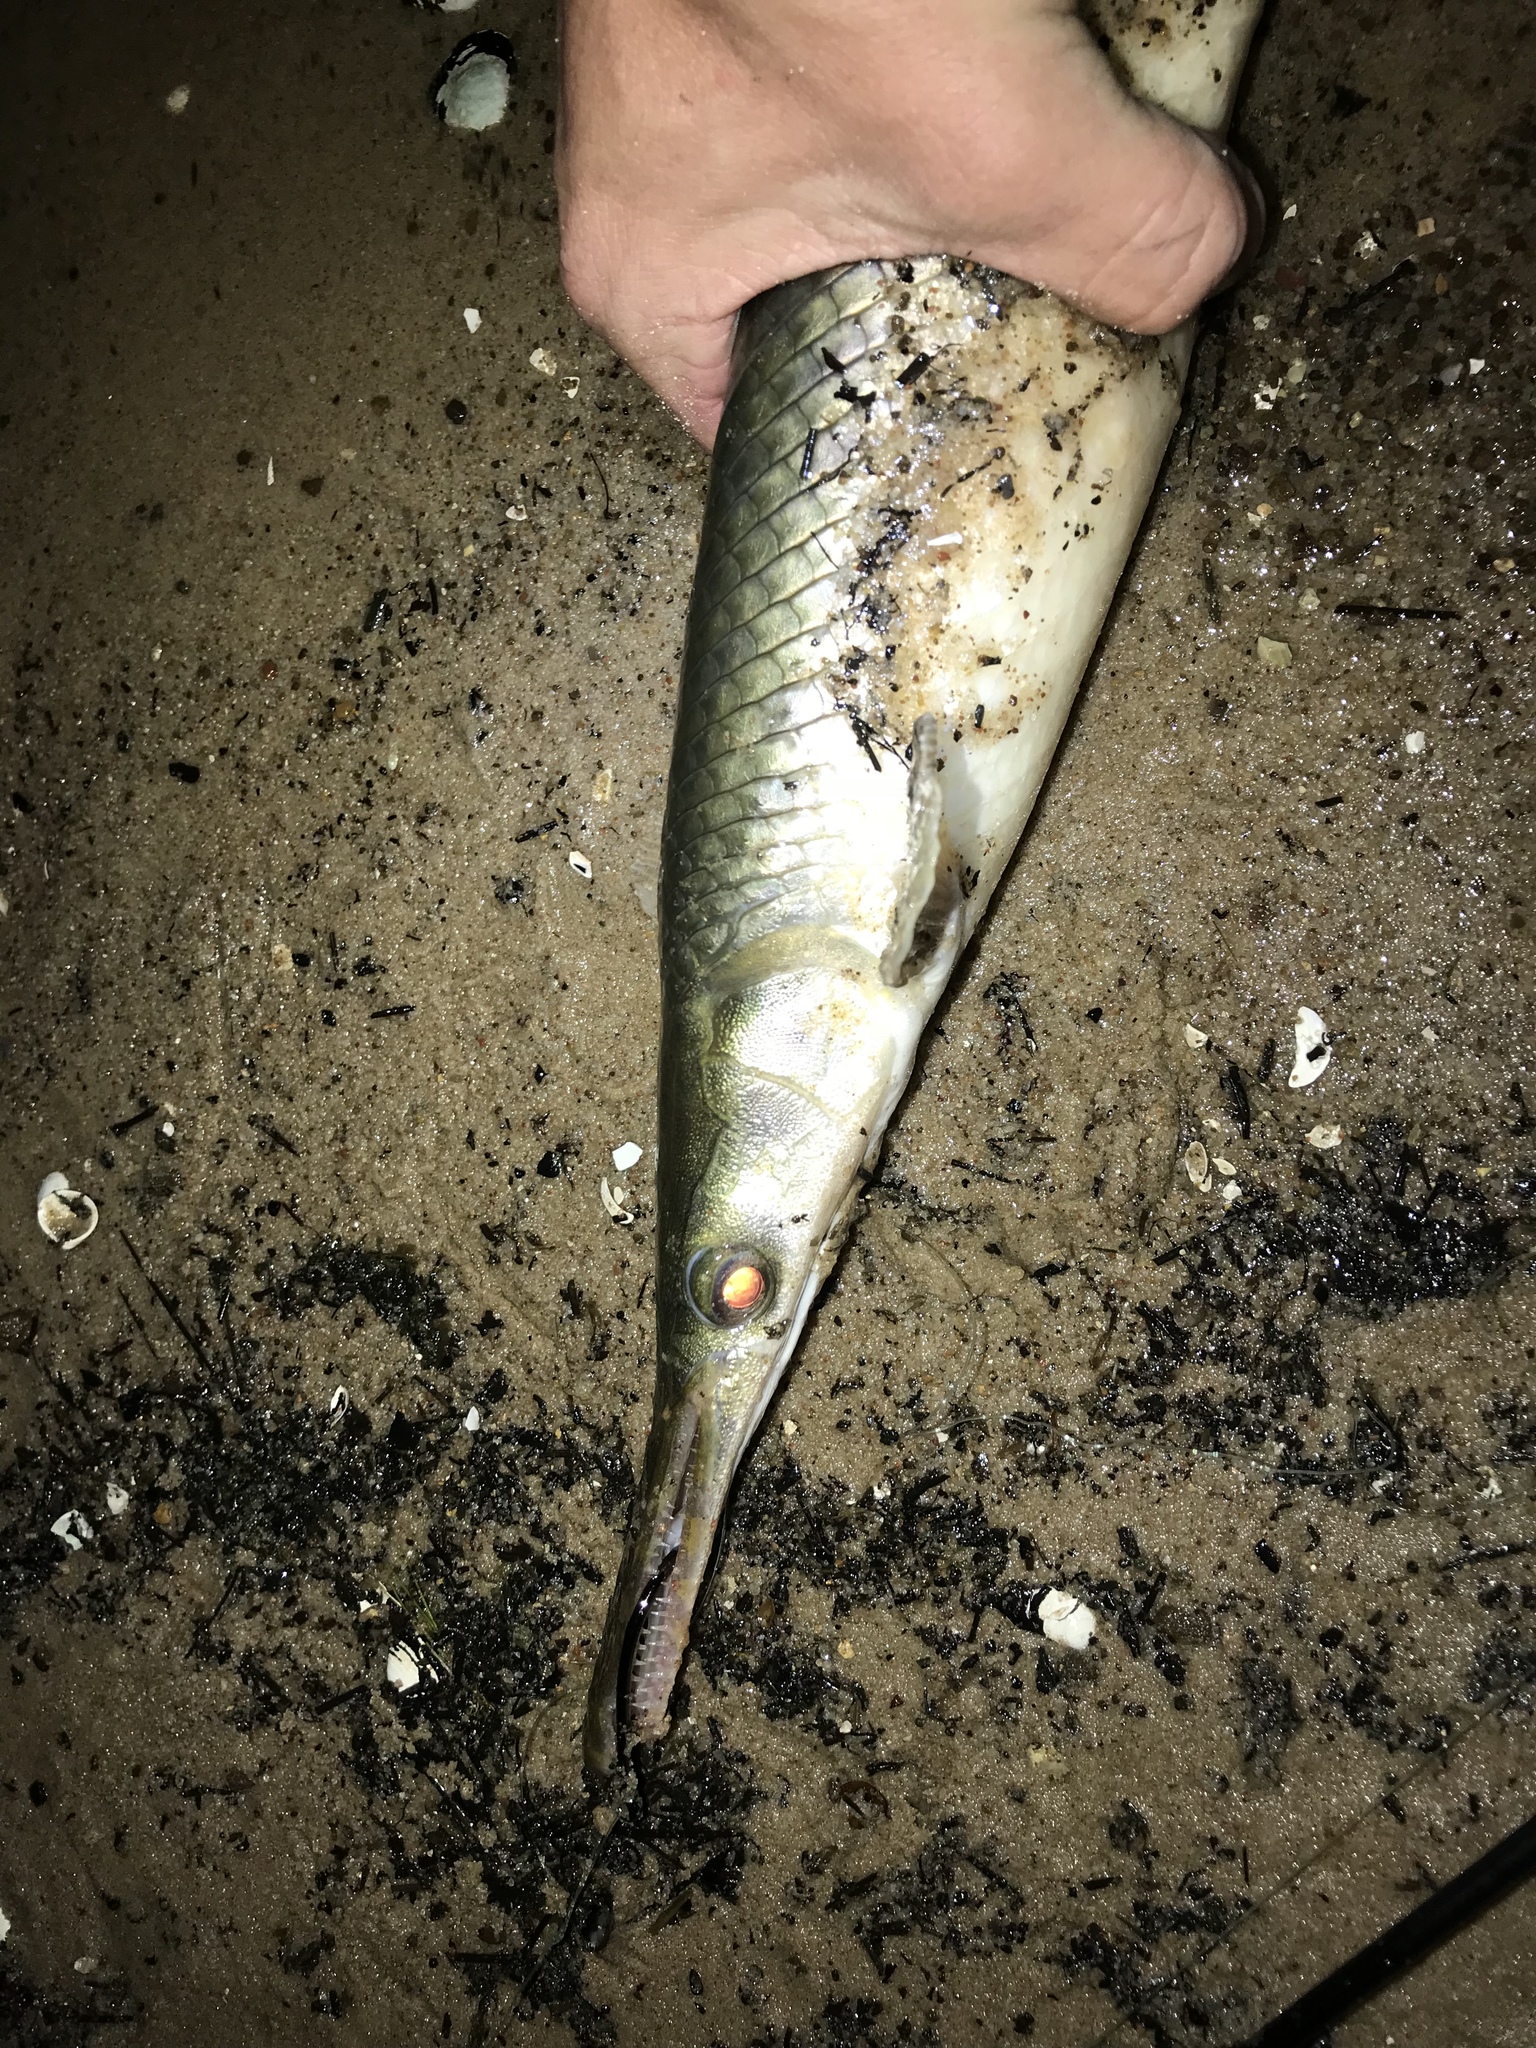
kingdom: Animalia
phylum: Chordata
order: Lepisosteiformes
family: Lepisosteidae
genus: Lepisosteus
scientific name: Lepisosteus oculatus
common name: Spotted gar
